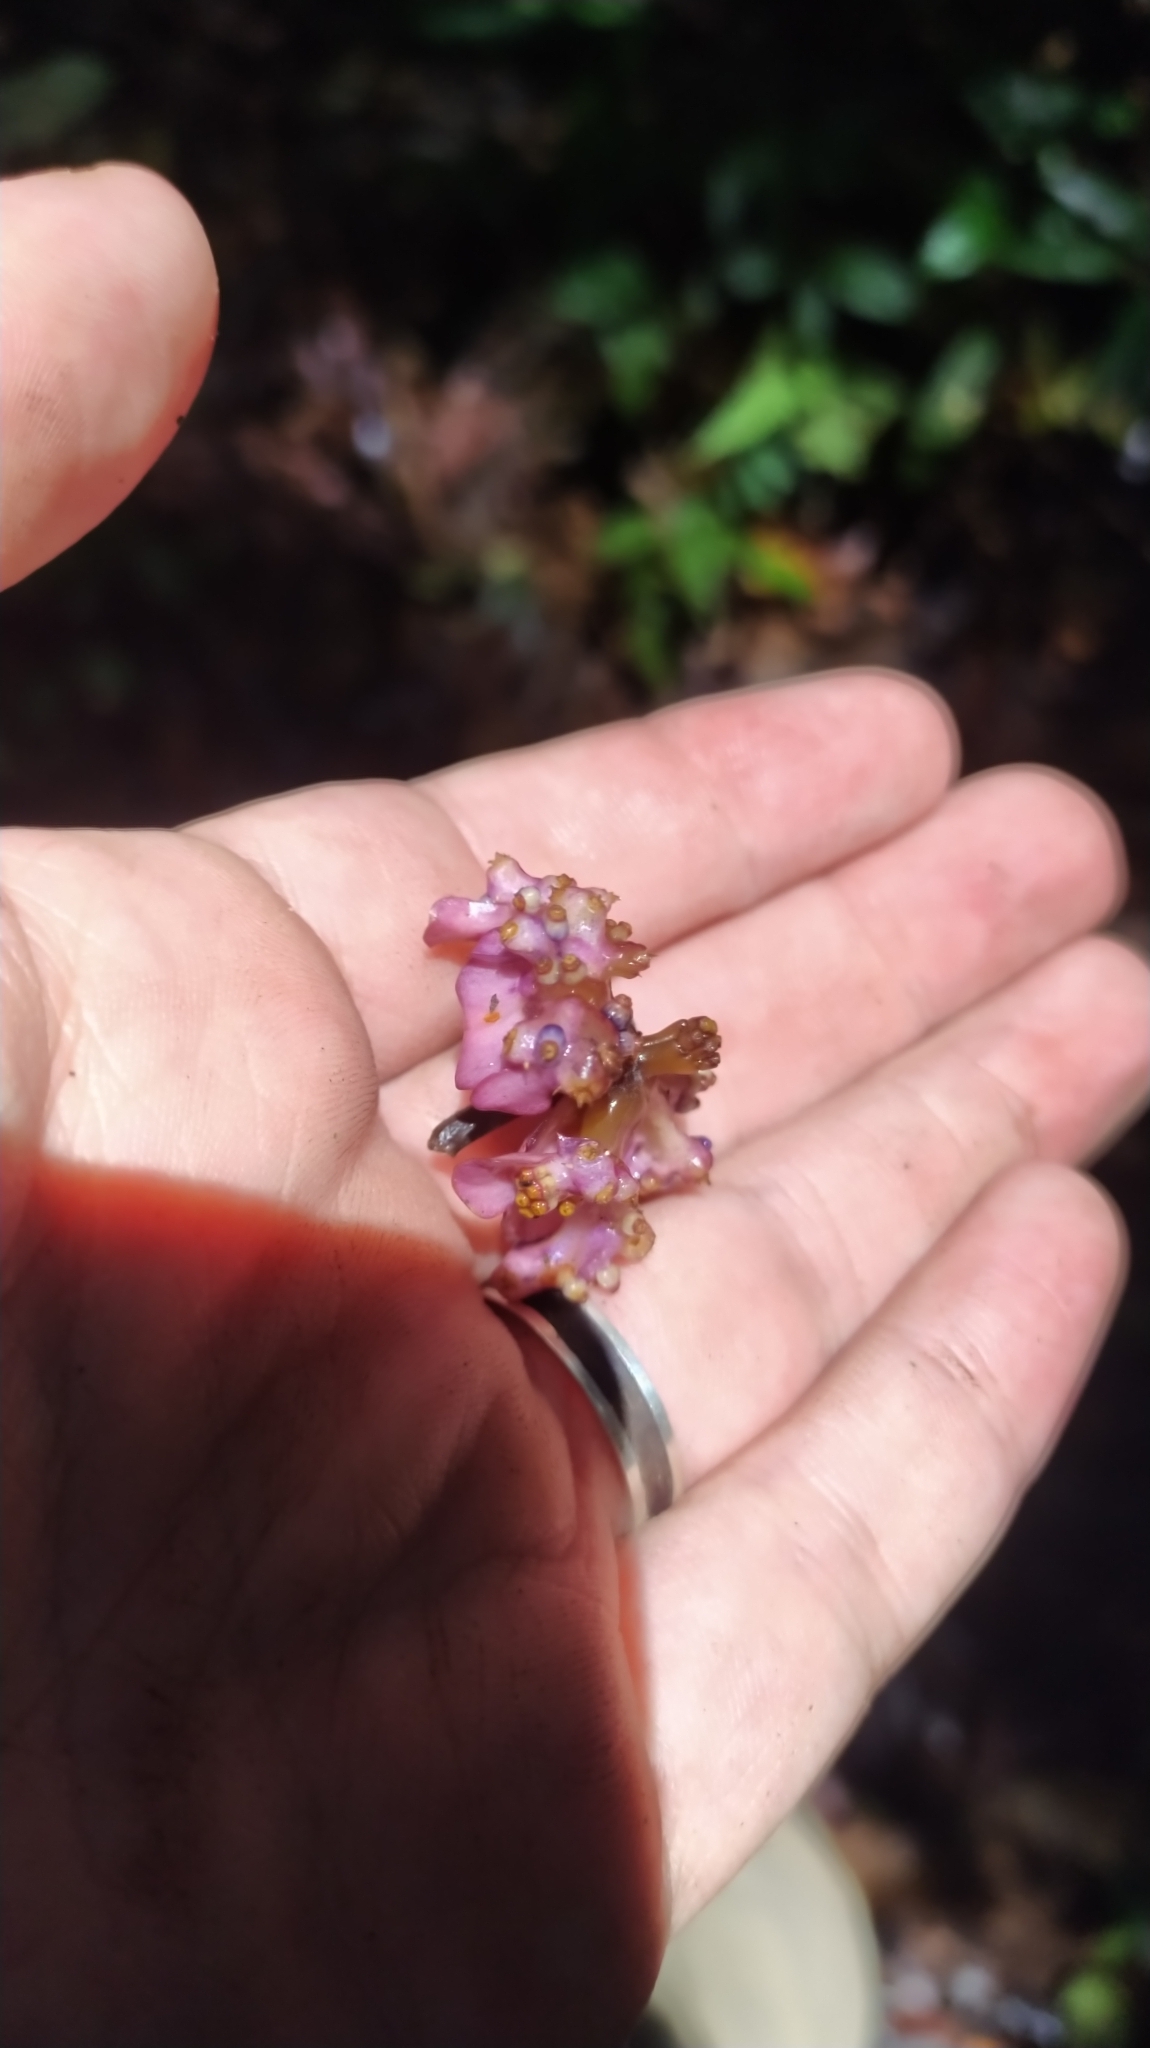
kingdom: Plantae
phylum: Tracheophyta
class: Magnoliopsida
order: Gentianales
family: Rubiaceae
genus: Palicourea
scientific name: Palicourea dichotoma
